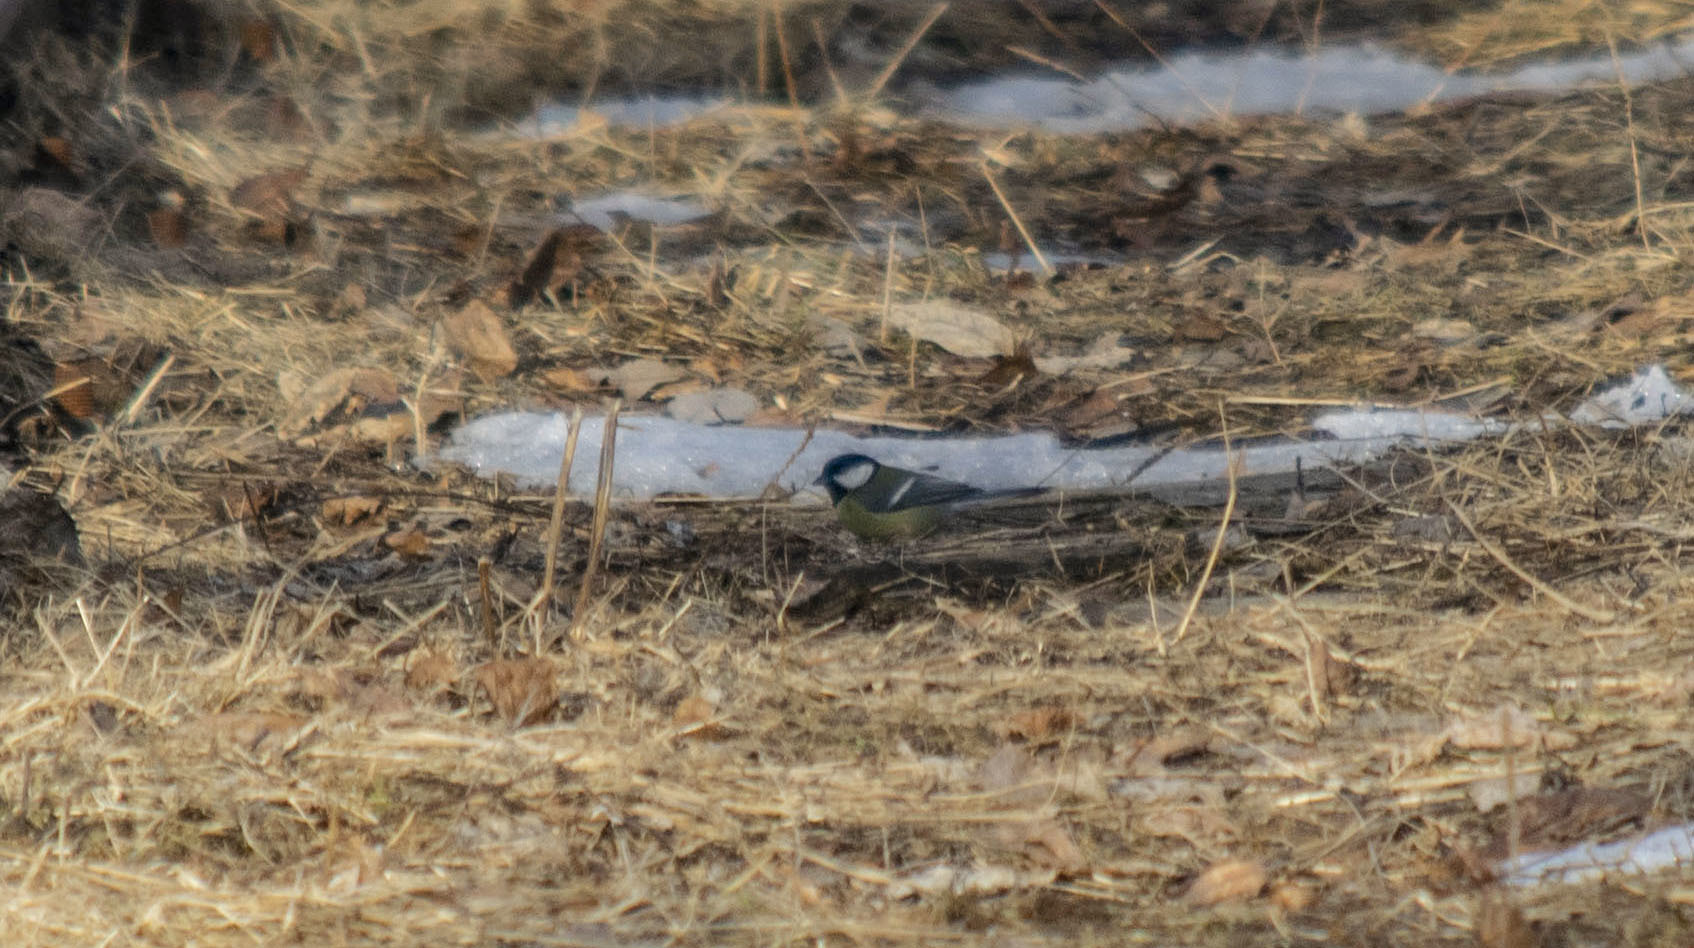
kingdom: Animalia
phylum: Chordata
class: Aves
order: Passeriformes
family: Paridae
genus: Parus
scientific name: Parus major
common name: Great tit
